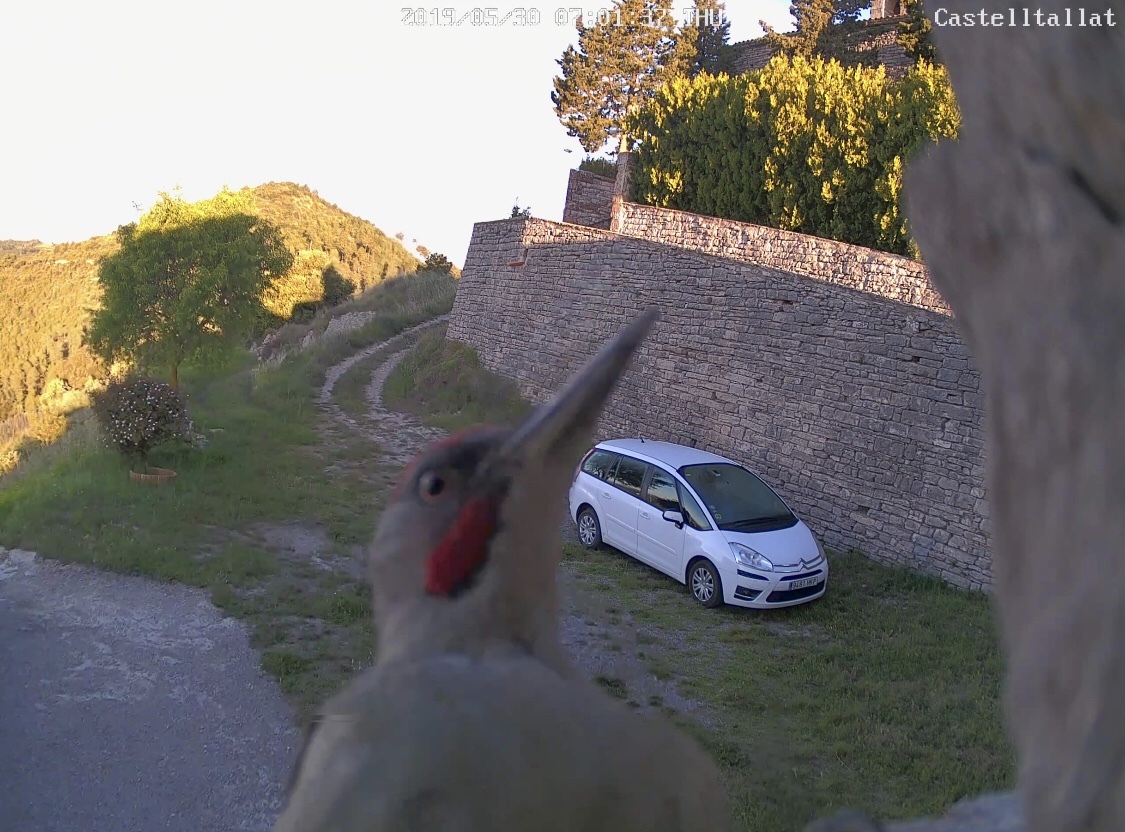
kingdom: Animalia
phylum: Chordata
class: Aves
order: Piciformes
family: Picidae
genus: Picus
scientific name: Picus sharpei
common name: Iberian green woodpecker
